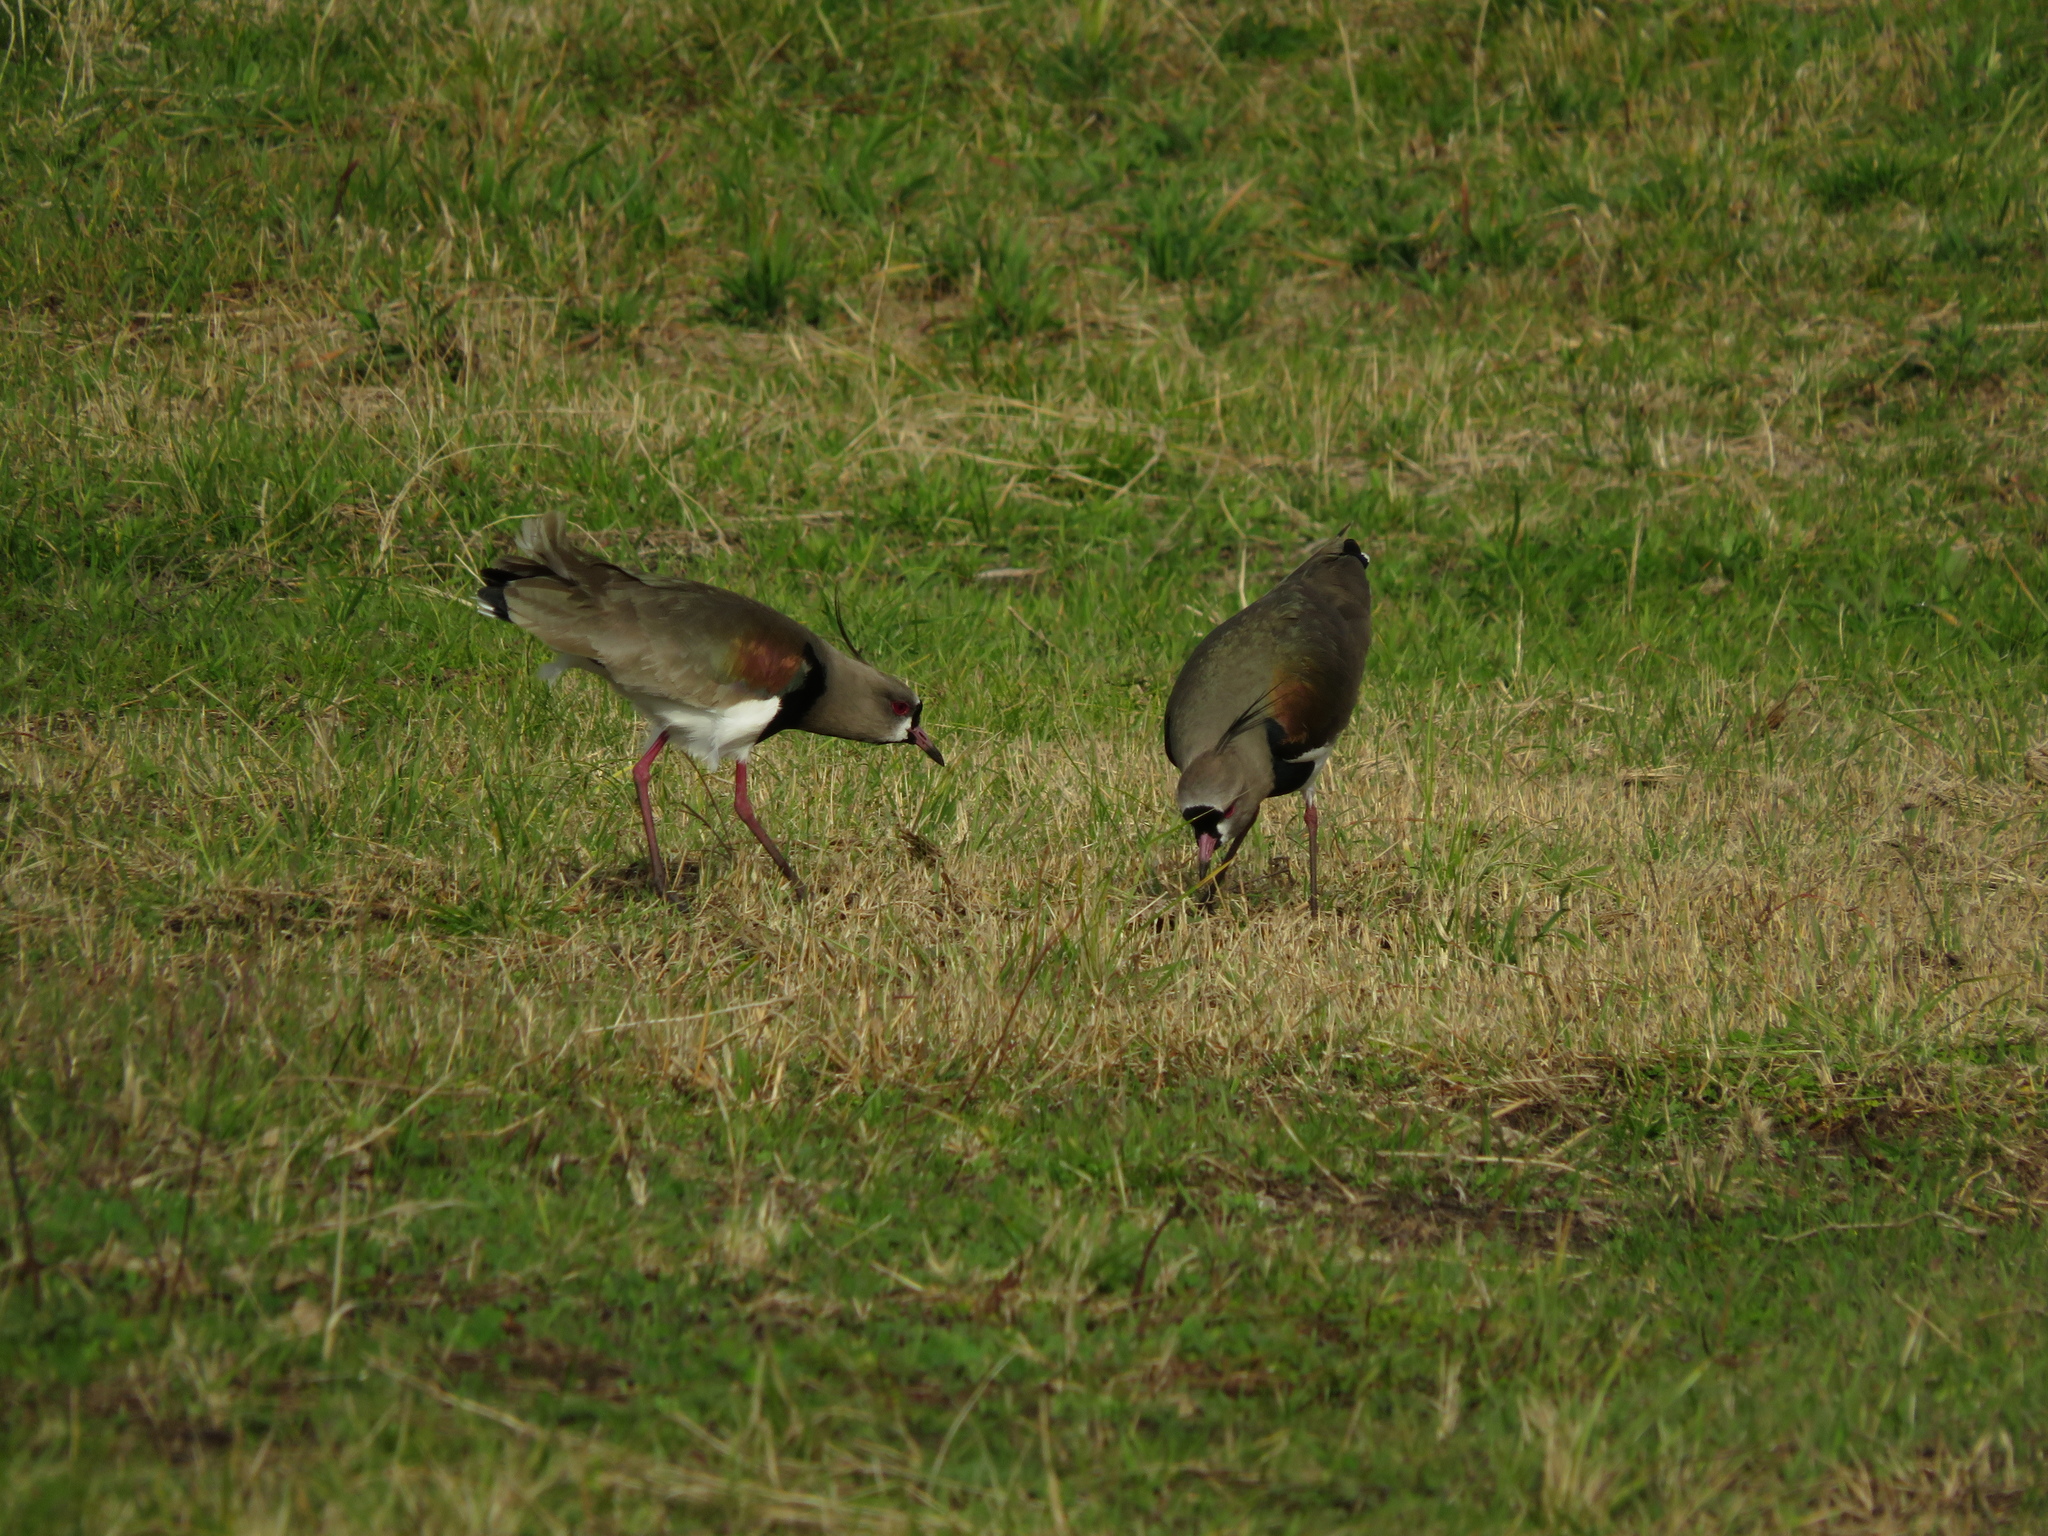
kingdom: Animalia
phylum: Chordata
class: Aves
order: Charadriiformes
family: Charadriidae
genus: Vanellus
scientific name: Vanellus chilensis
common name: Southern lapwing
